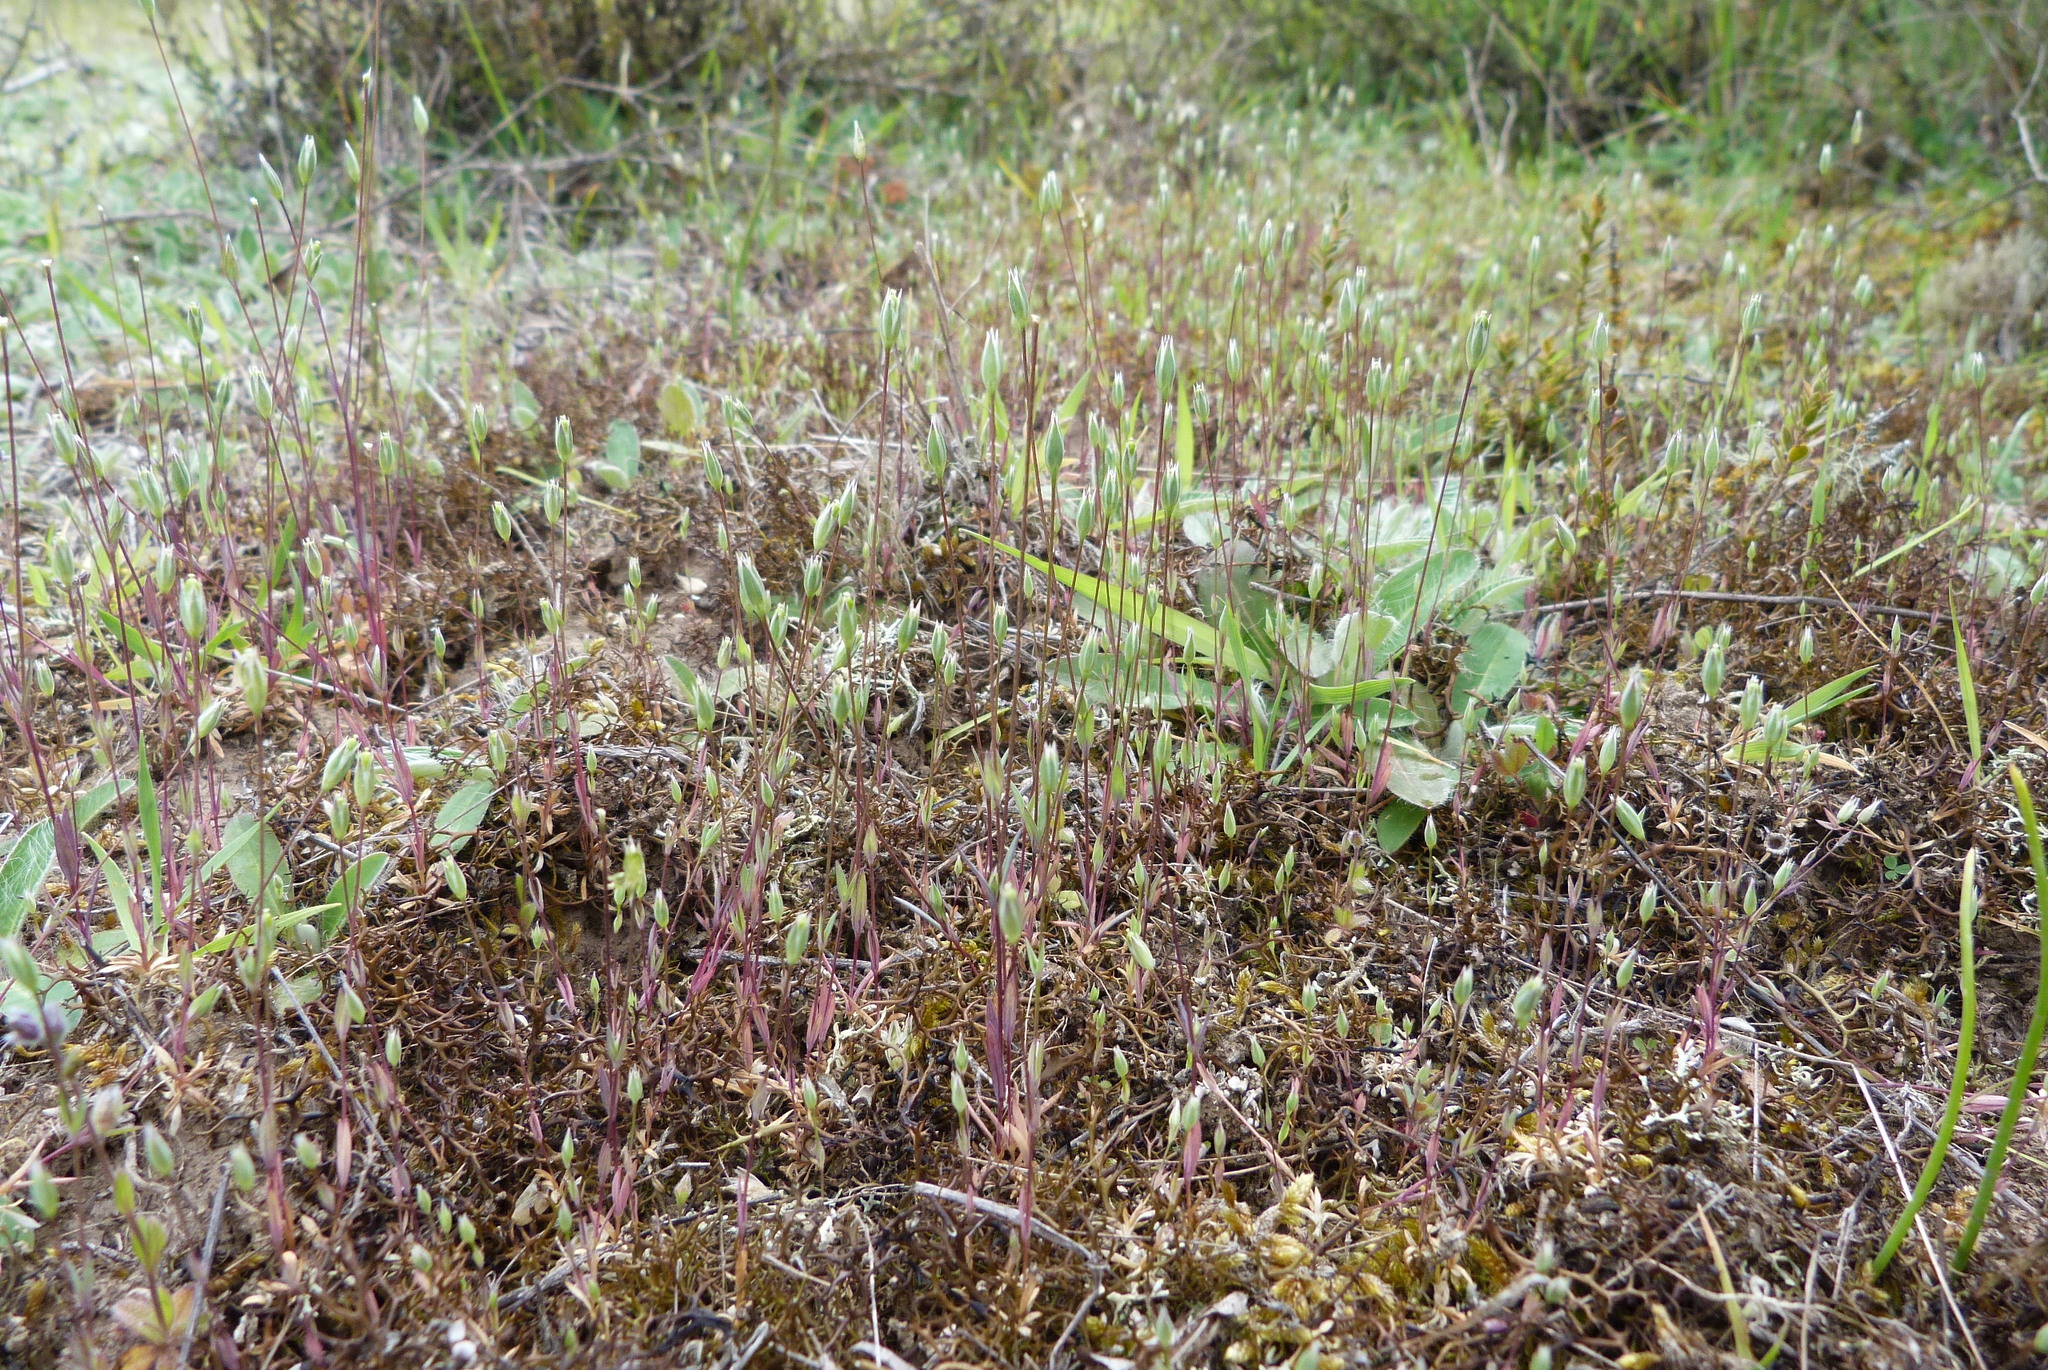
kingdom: Plantae
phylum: Tracheophyta
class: Magnoliopsida
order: Caryophyllales
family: Caryophyllaceae
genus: Moenchia
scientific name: Moenchia erecta
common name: Upright chickweed
